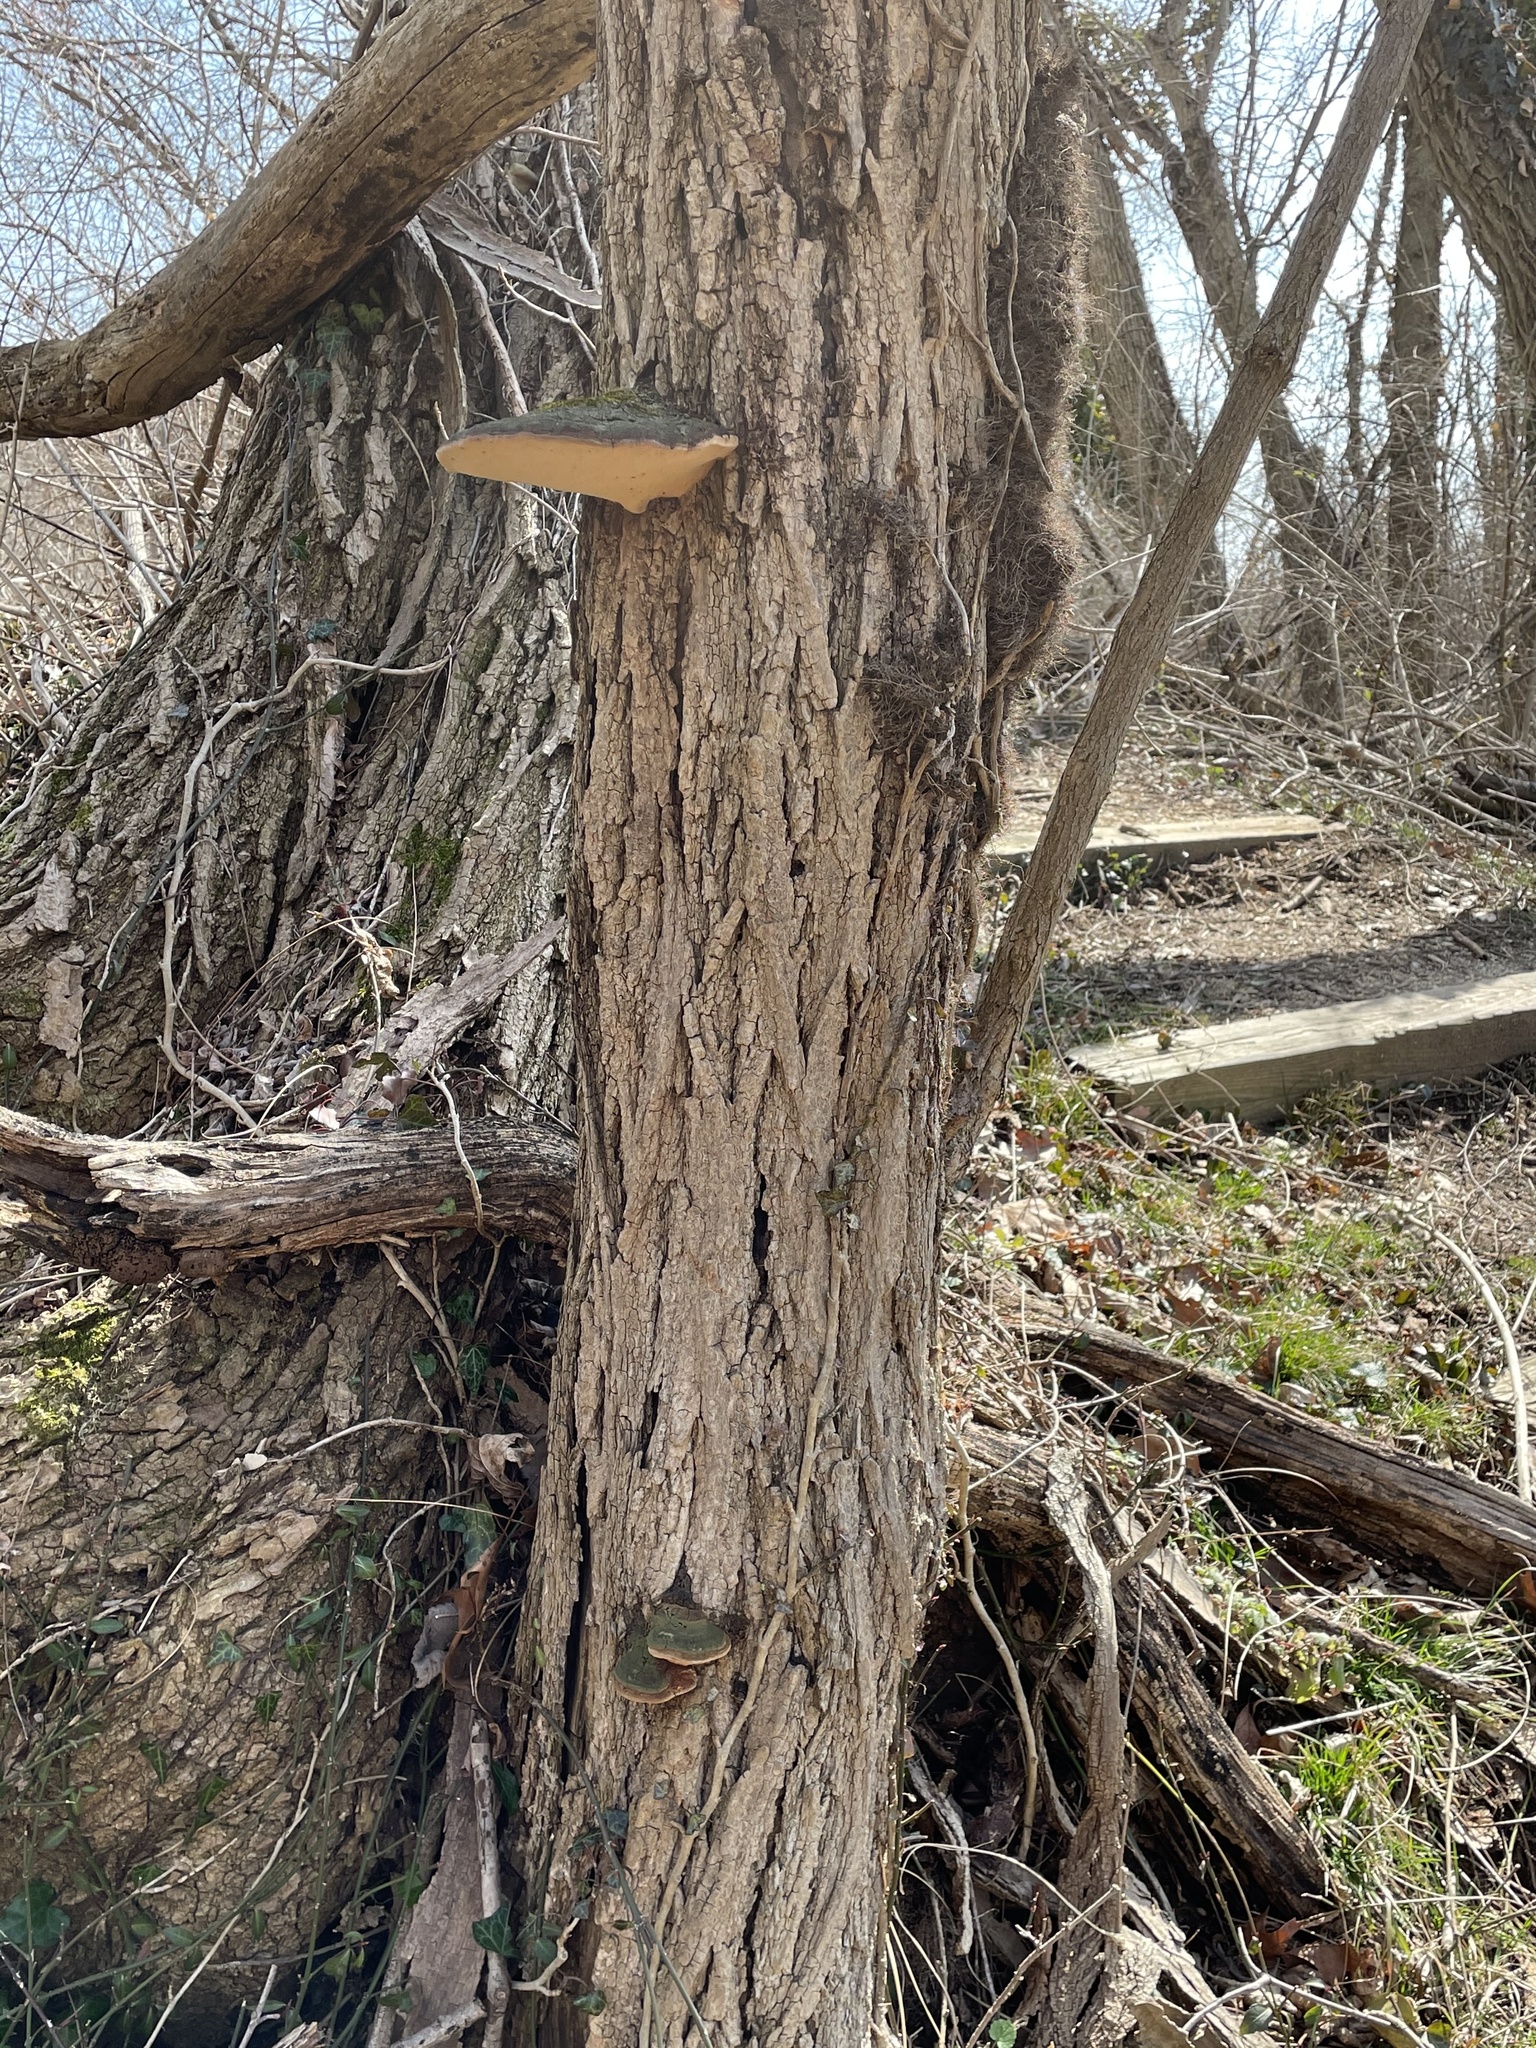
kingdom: Fungi
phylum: Basidiomycota
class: Agaricomycetes
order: Hymenochaetales
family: Hymenochaetaceae
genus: Phellinus
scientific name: Phellinus robiniae
